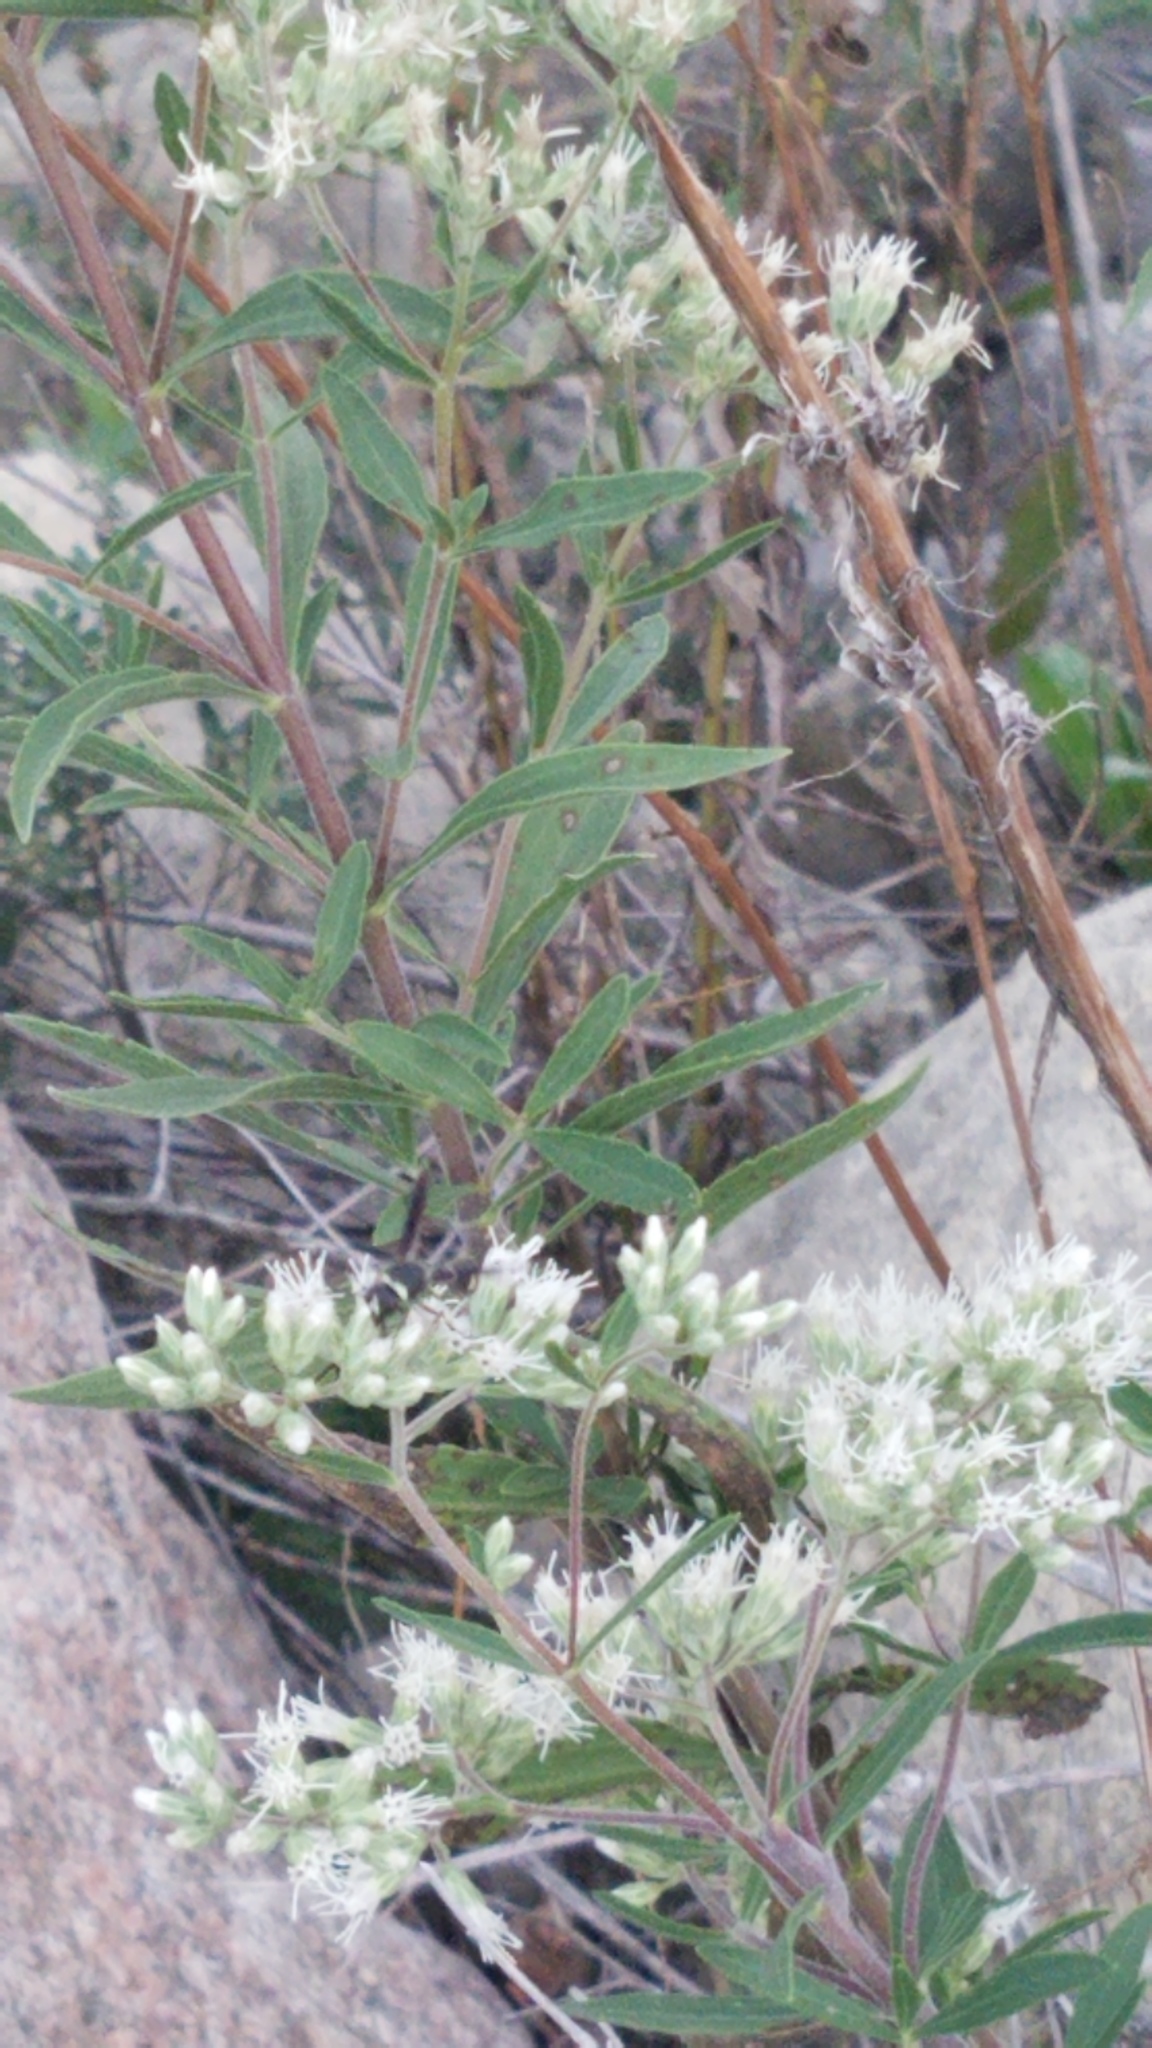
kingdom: Animalia
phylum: Arthropoda
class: Insecta
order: Hymenoptera
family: Vespidae
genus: Eumenes
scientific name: Eumenes fraternus
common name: Fraternal potter wasp
